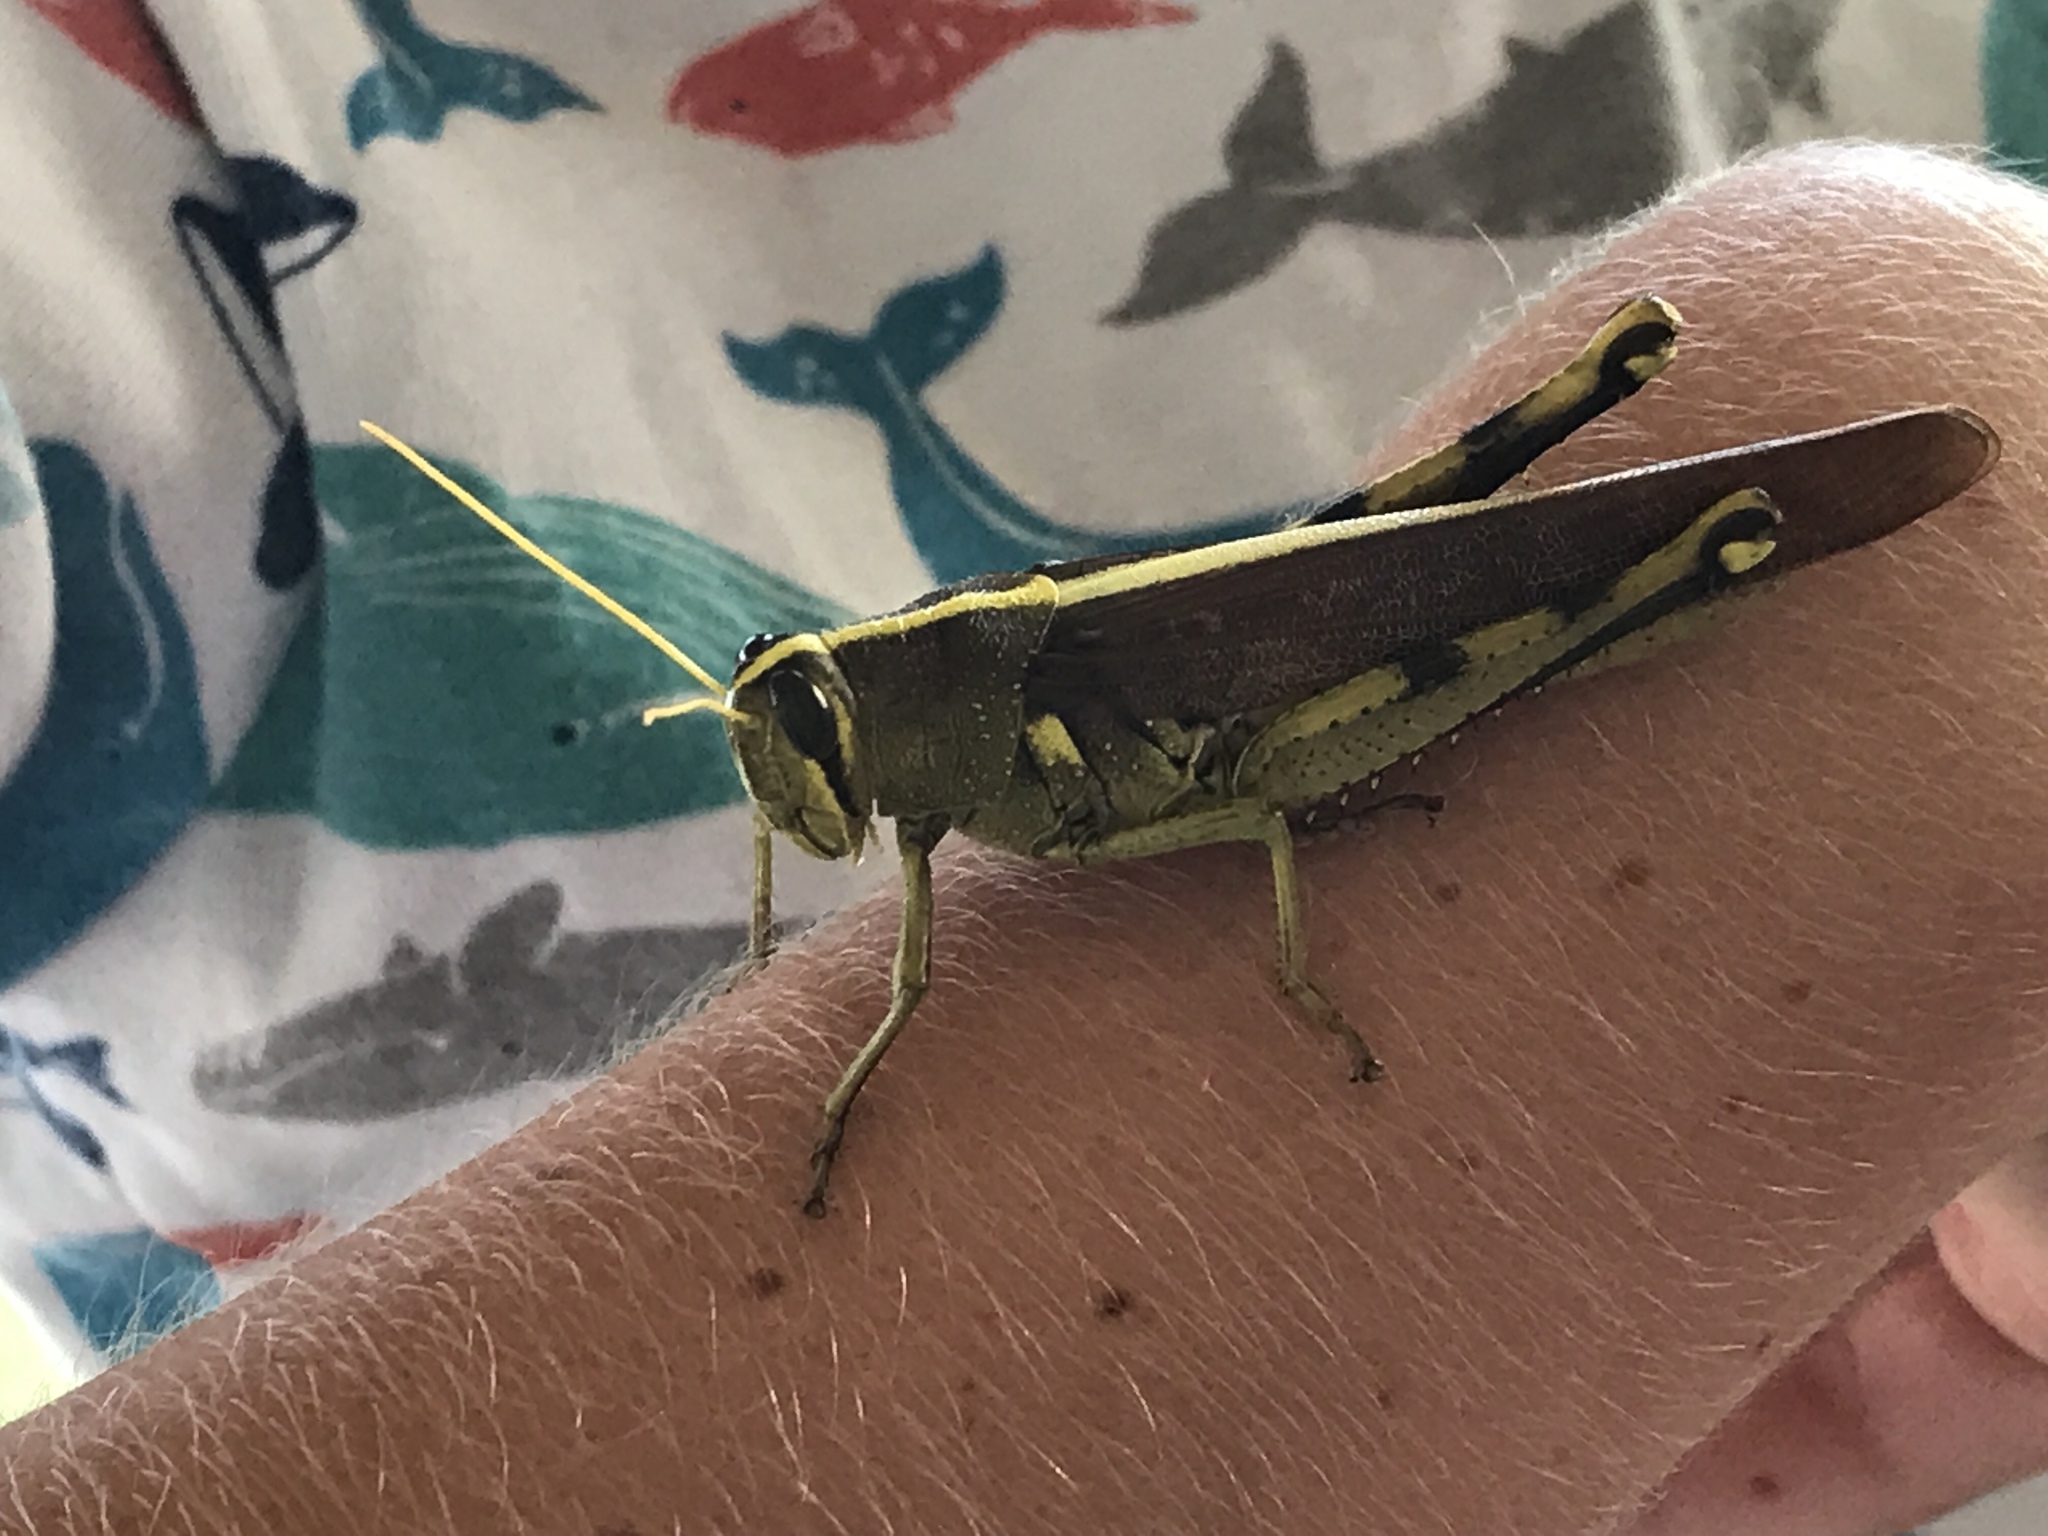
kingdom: Animalia
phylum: Arthropoda
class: Insecta
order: Orthoptera
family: Acrididae
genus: Schistocerca
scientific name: Schistocerca obscura
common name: Obscure bird grasshopper
